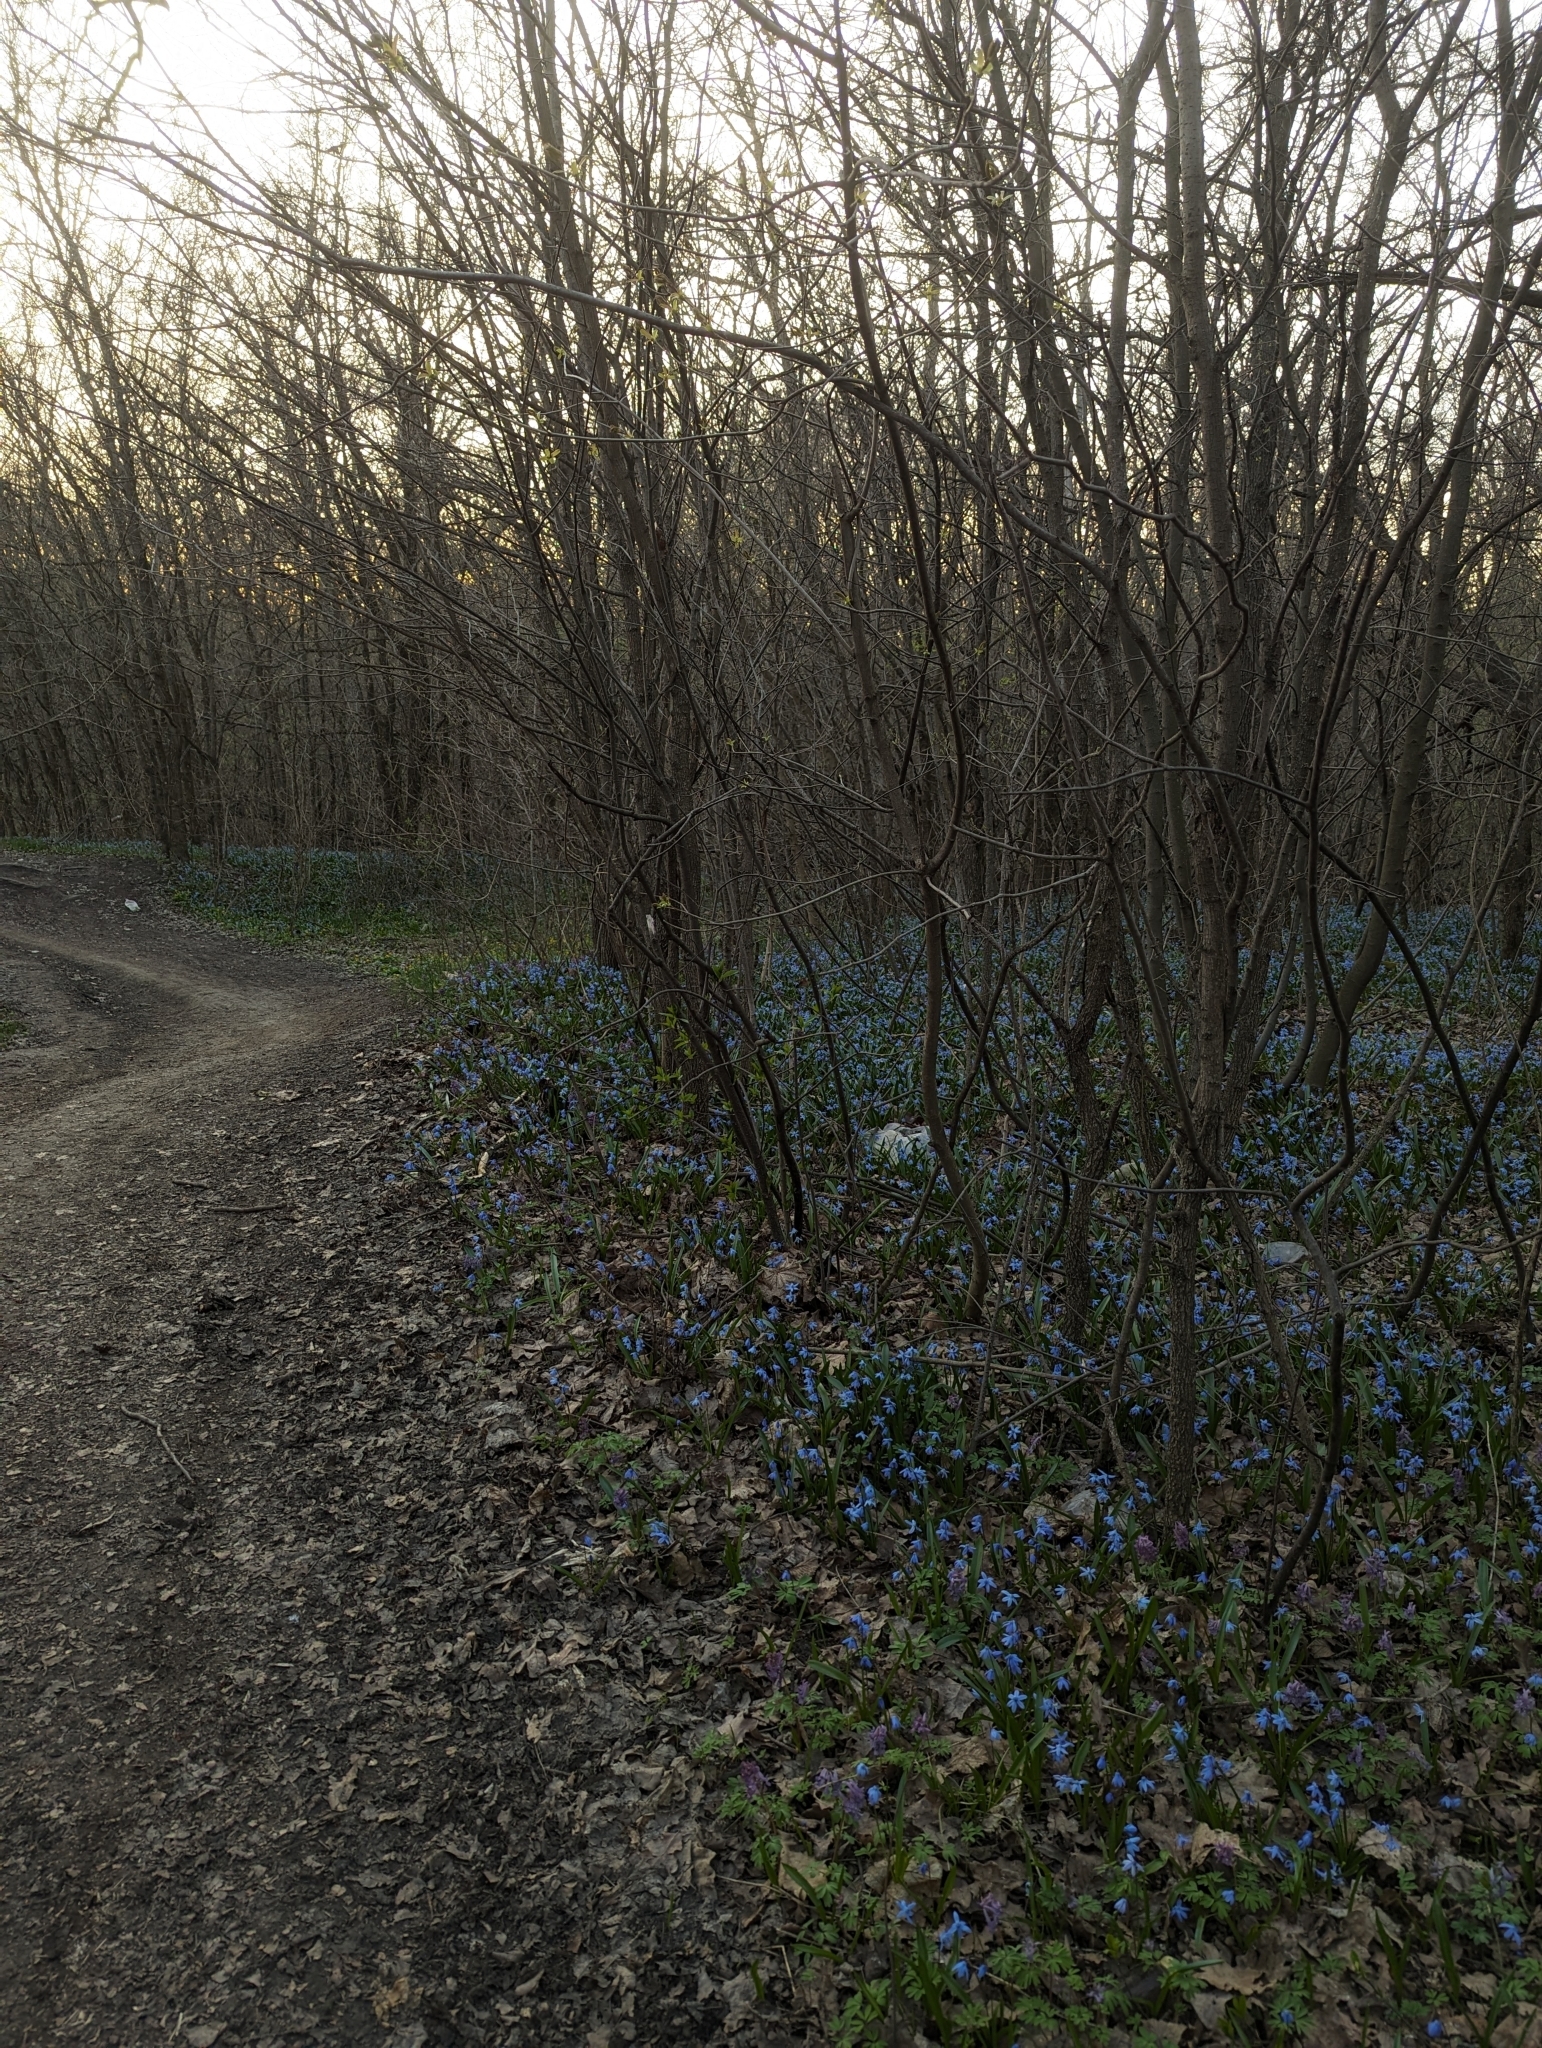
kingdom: Plantae
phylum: Tracheophyta
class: Liliopsida
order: Asparagales
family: Asparagaceae
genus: Scilla
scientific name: Scilla siberica
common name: Siberian squill
